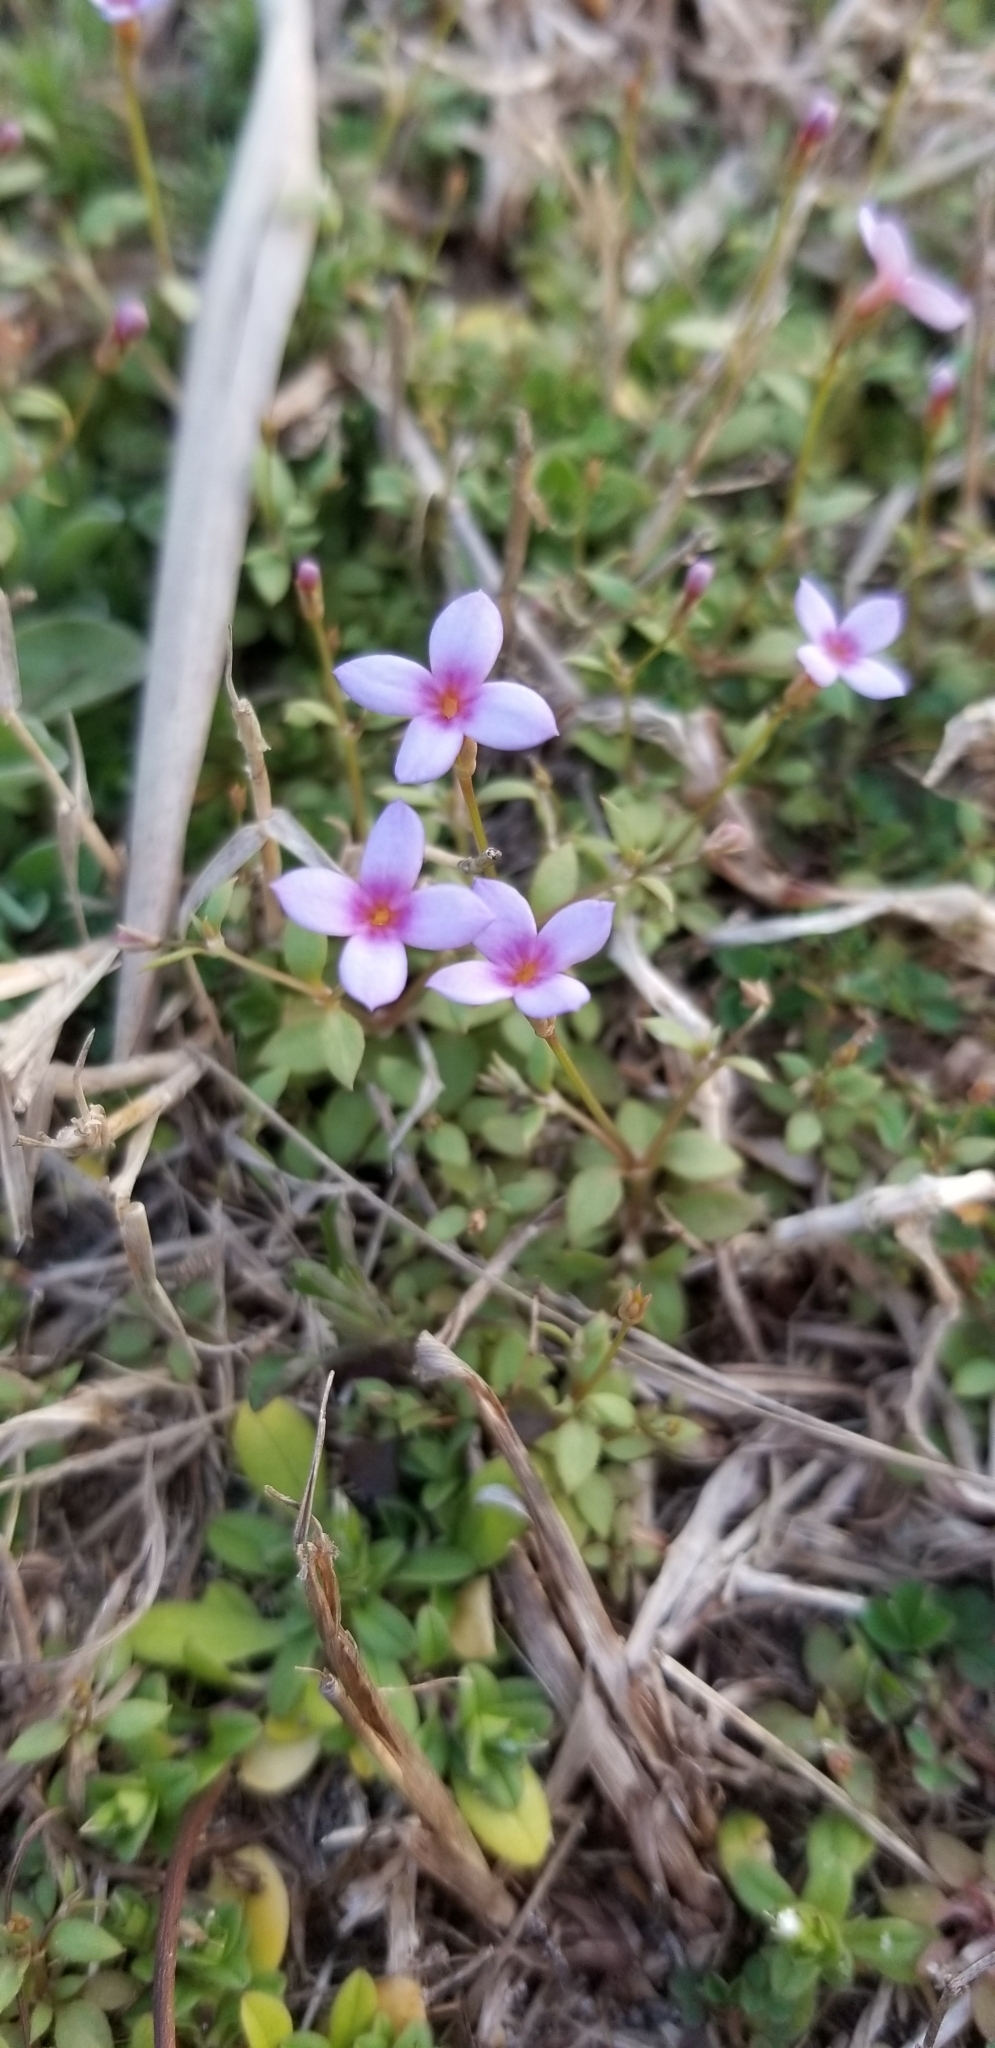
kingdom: Plantae
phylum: Tracheophyta
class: Magnoliopsida
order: Gentianales
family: Rubiaceae
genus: Houstonia
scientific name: Houstonia pusilla
